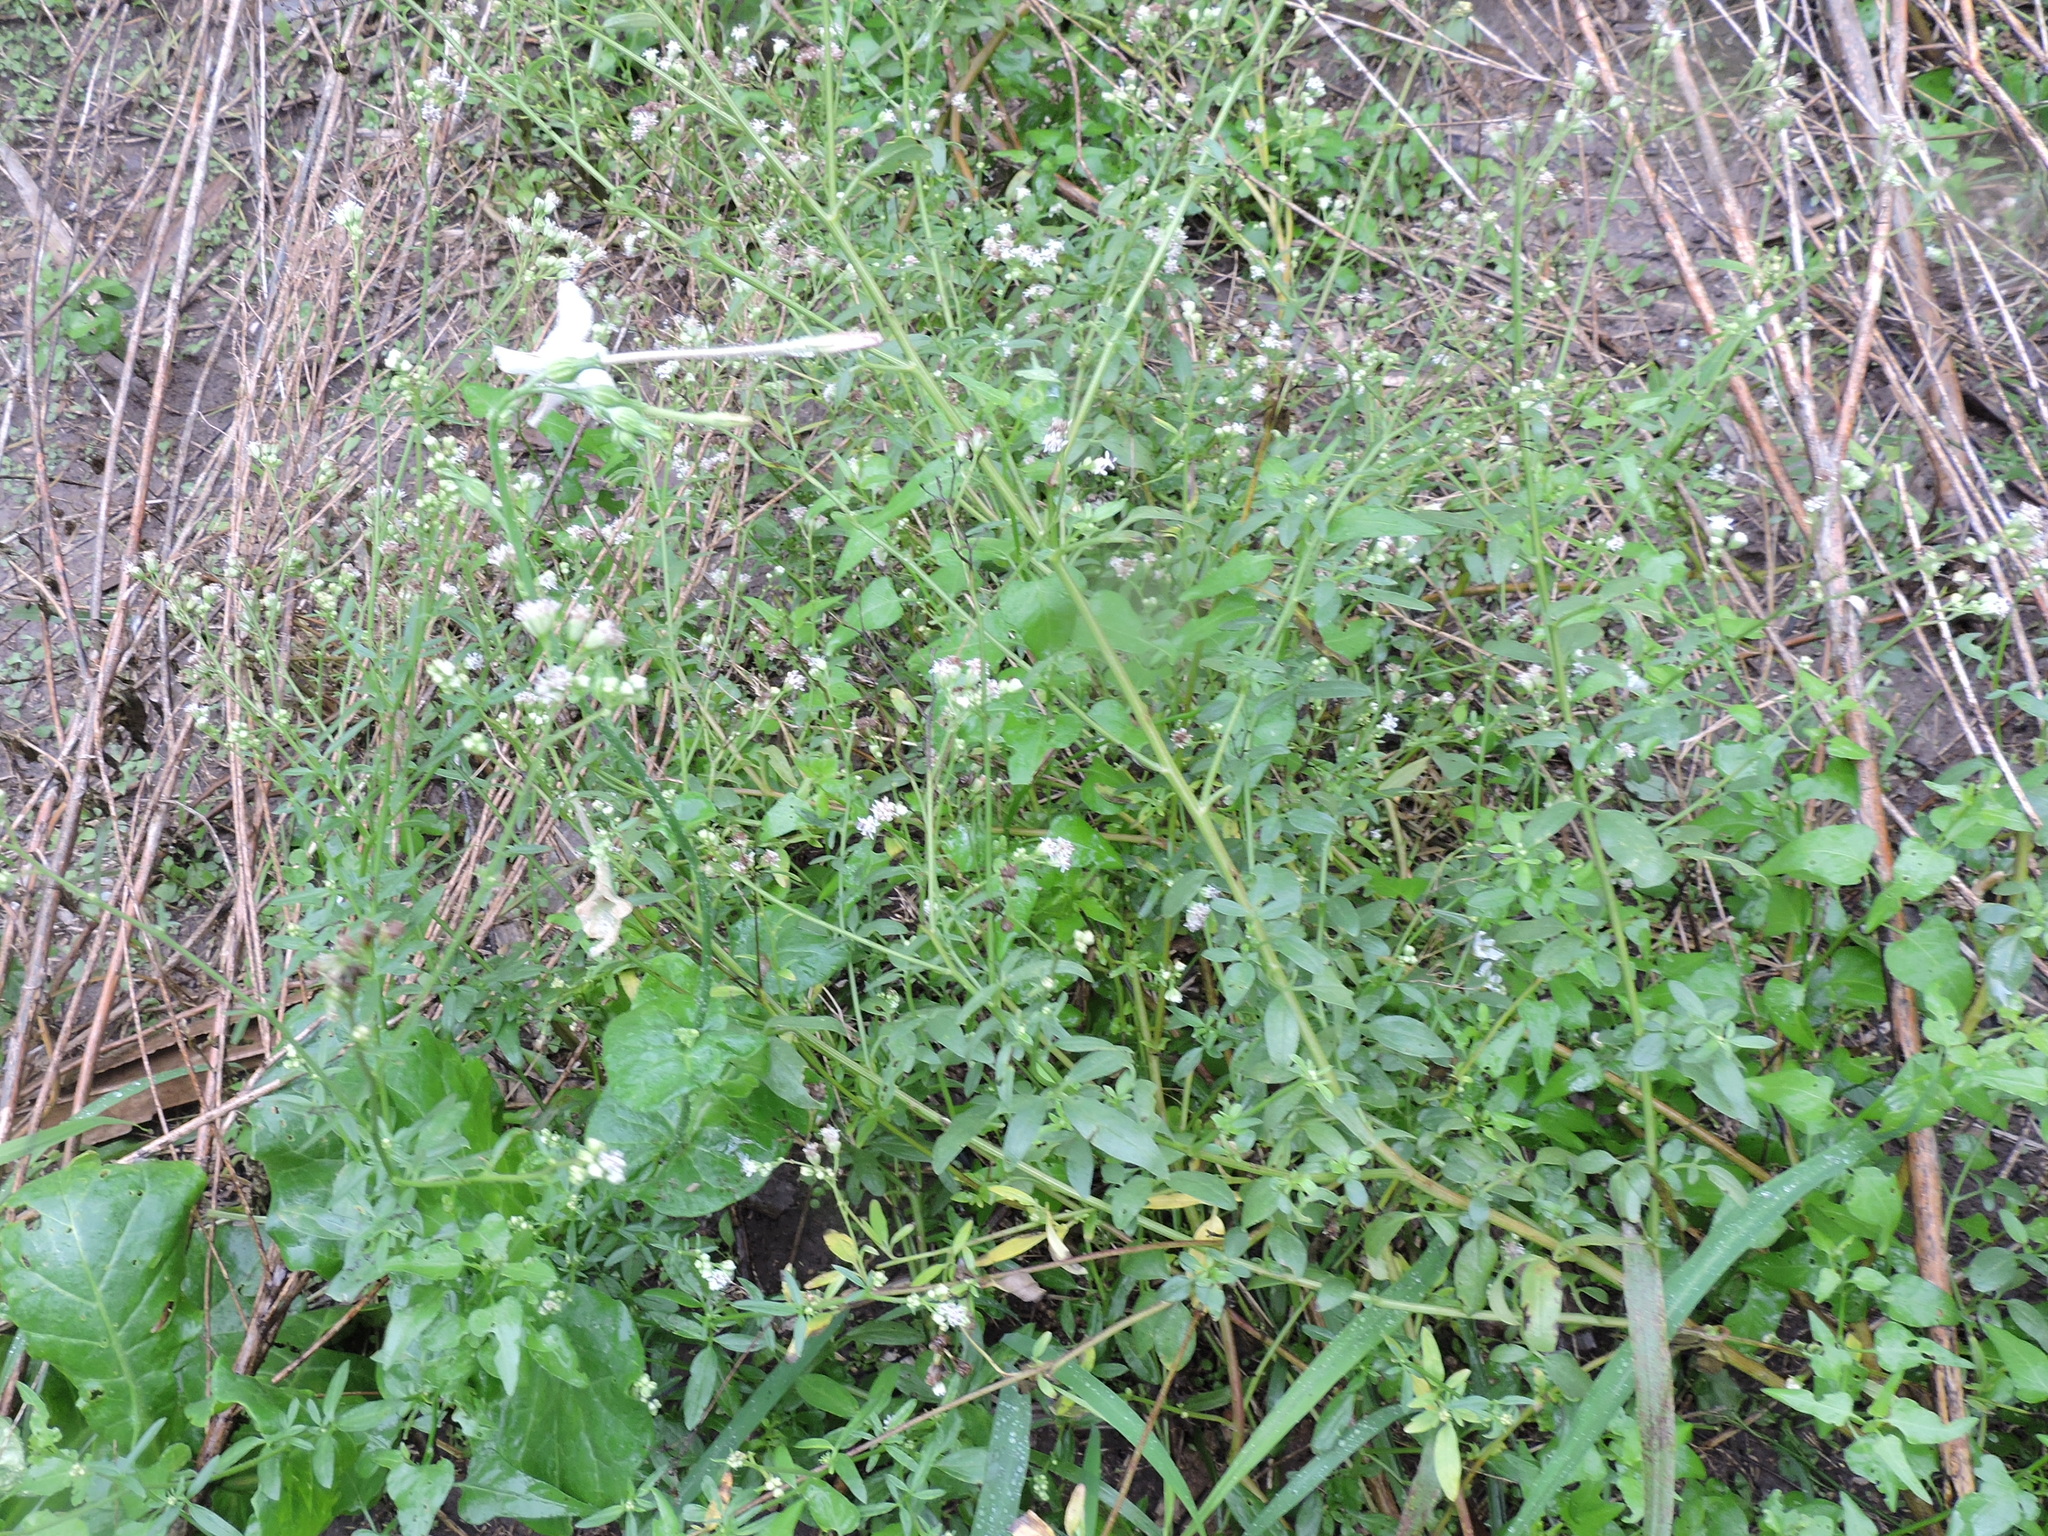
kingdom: Plantae
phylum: Tracheophyta
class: Magnoliopsida
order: Solanales
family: Solanaceae
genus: Nicotiana
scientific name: Nicotiana repanda
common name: Fiddle-leaf tobacco
